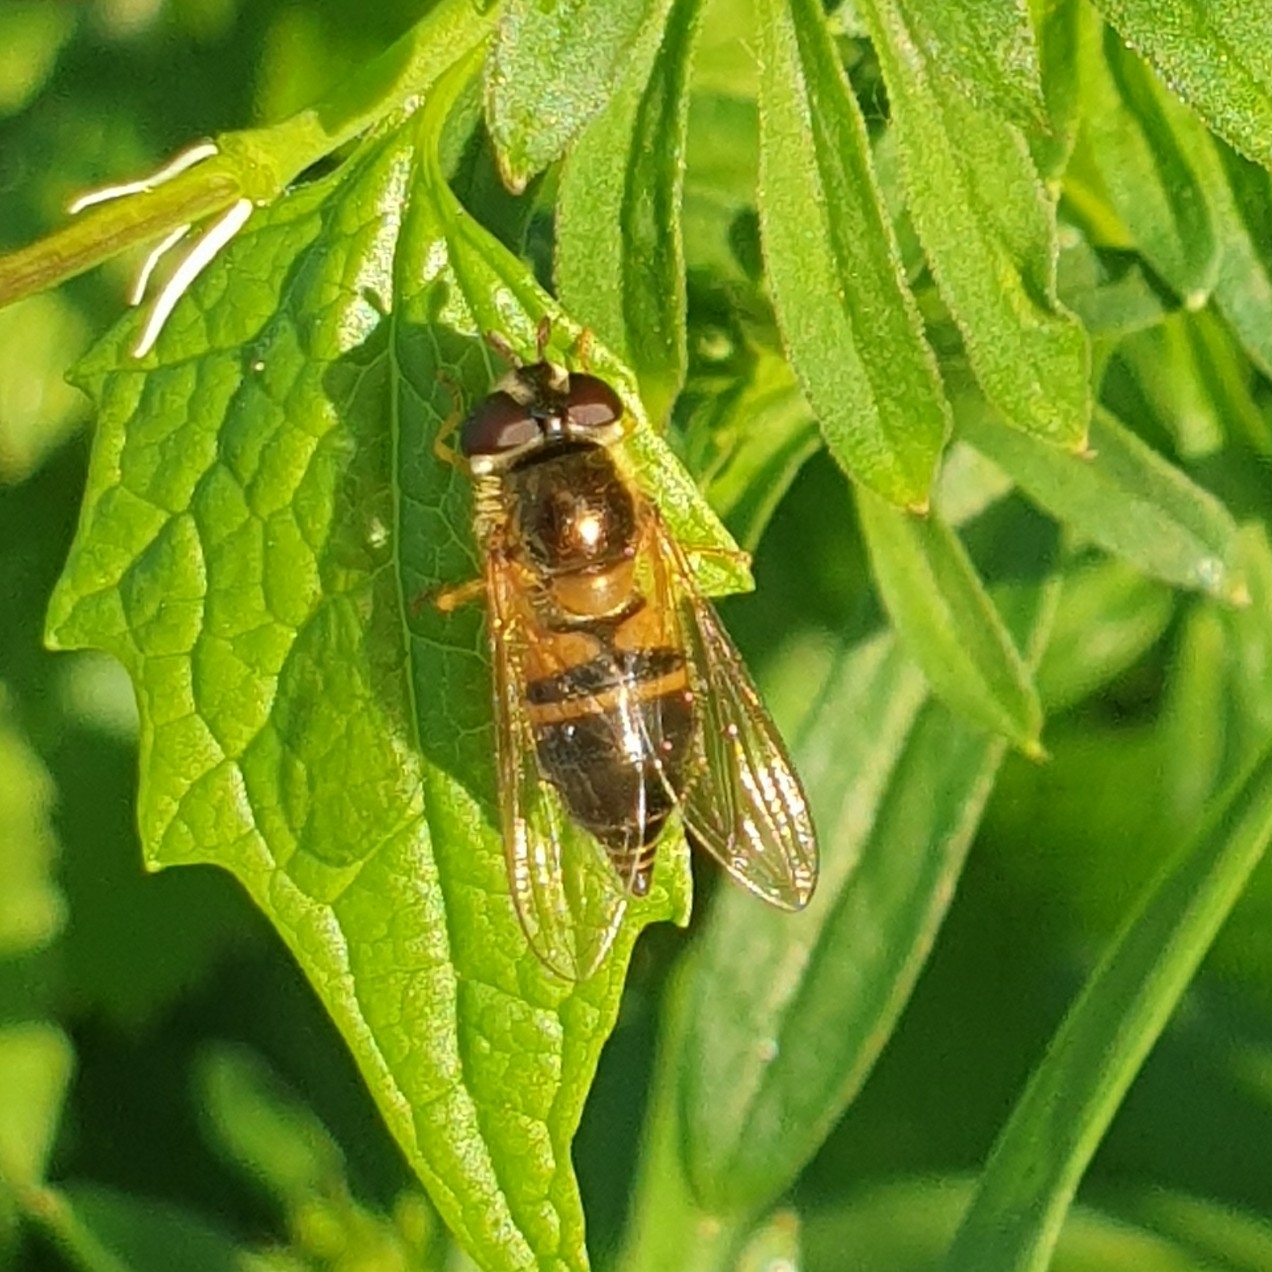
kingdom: Animalia
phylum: Arthropoda
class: Insecta
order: Diptera
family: Syrphidae
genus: Epistrophe
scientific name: Epistrophe eligans
